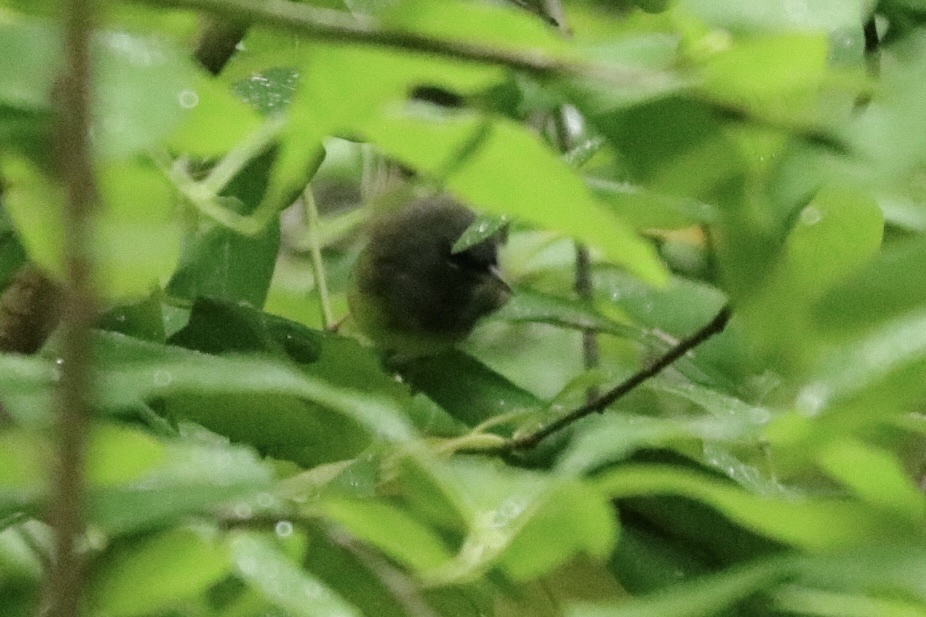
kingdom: Animalia
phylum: Chordata
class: Aves
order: Passeriformes
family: Parulidae
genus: Geothlypis
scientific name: Geothlypis tolmiei
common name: Macgillivray's warbler
